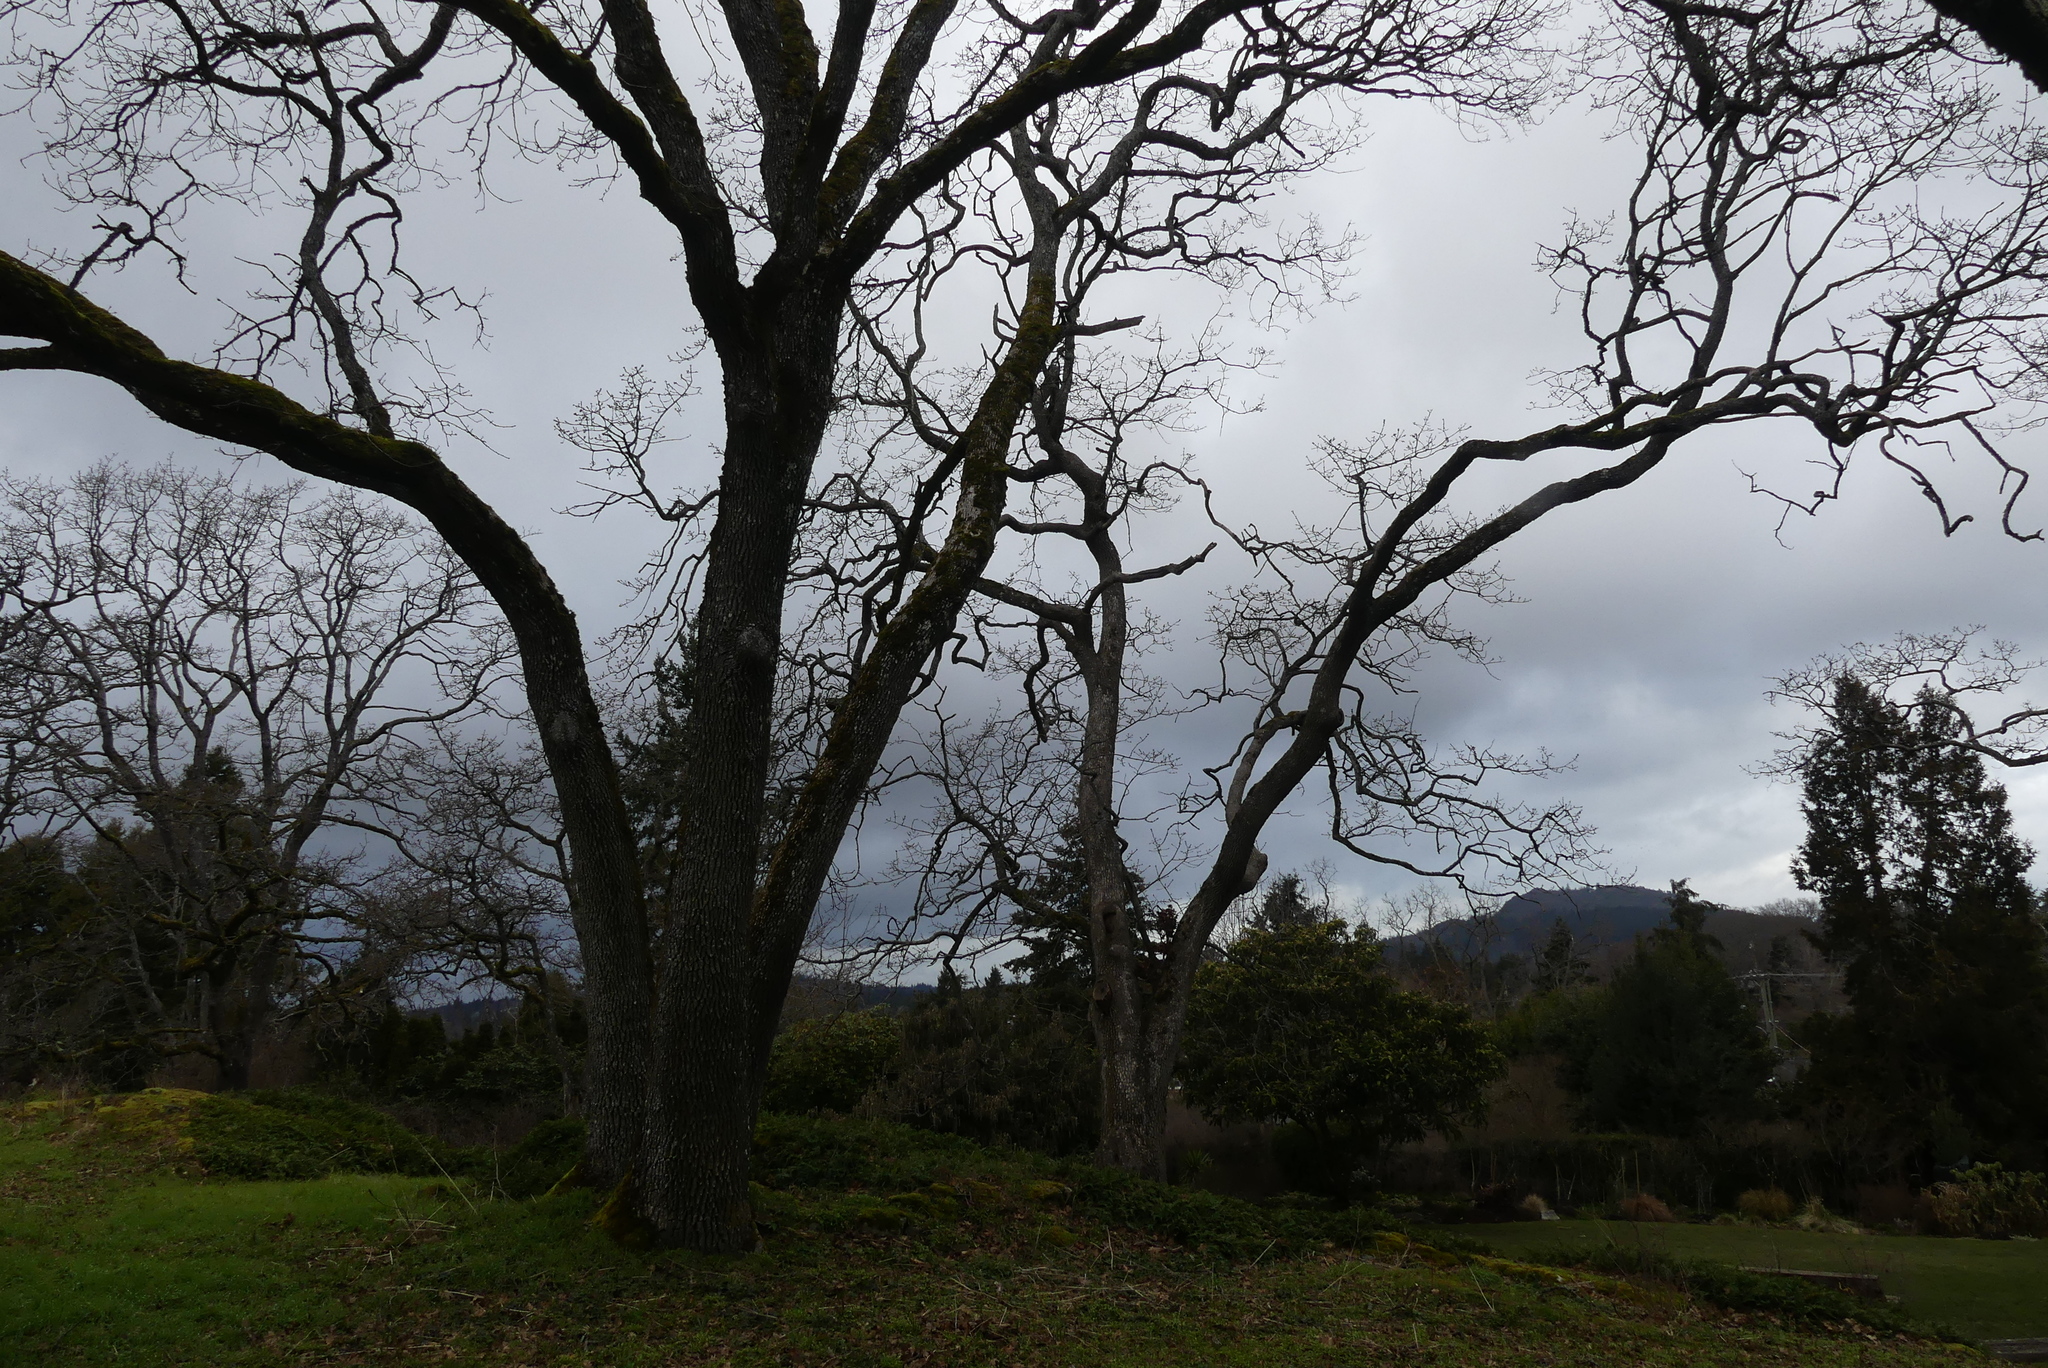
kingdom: Plantae
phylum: Tracheophyta
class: Magnoliopsida
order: Fagales
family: Fagaceae
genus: Quercus
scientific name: Quercus garryana
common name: Garry oak
